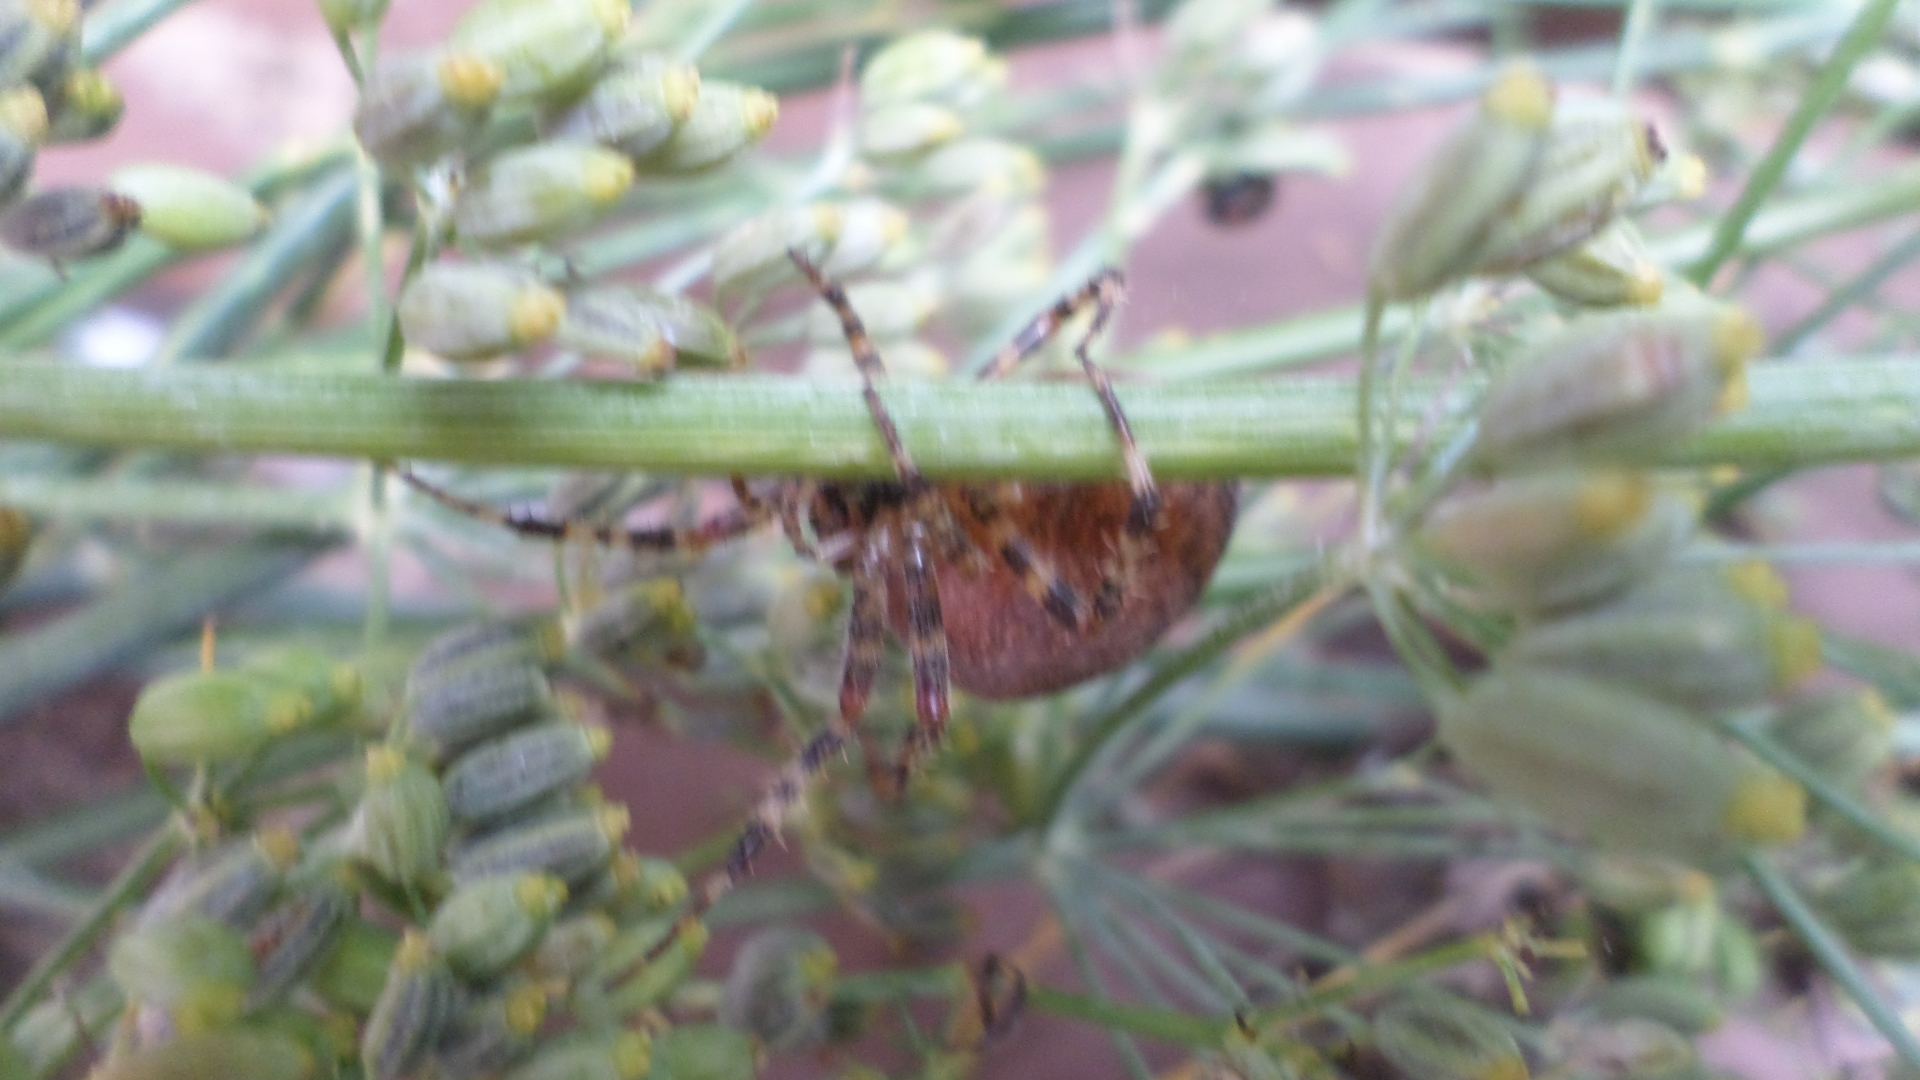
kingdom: Animalia
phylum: Arthropoda
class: Arachnida
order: Araneae
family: Araneidae
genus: Araneus
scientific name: Araneus diadematus
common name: Cross orbweaver
